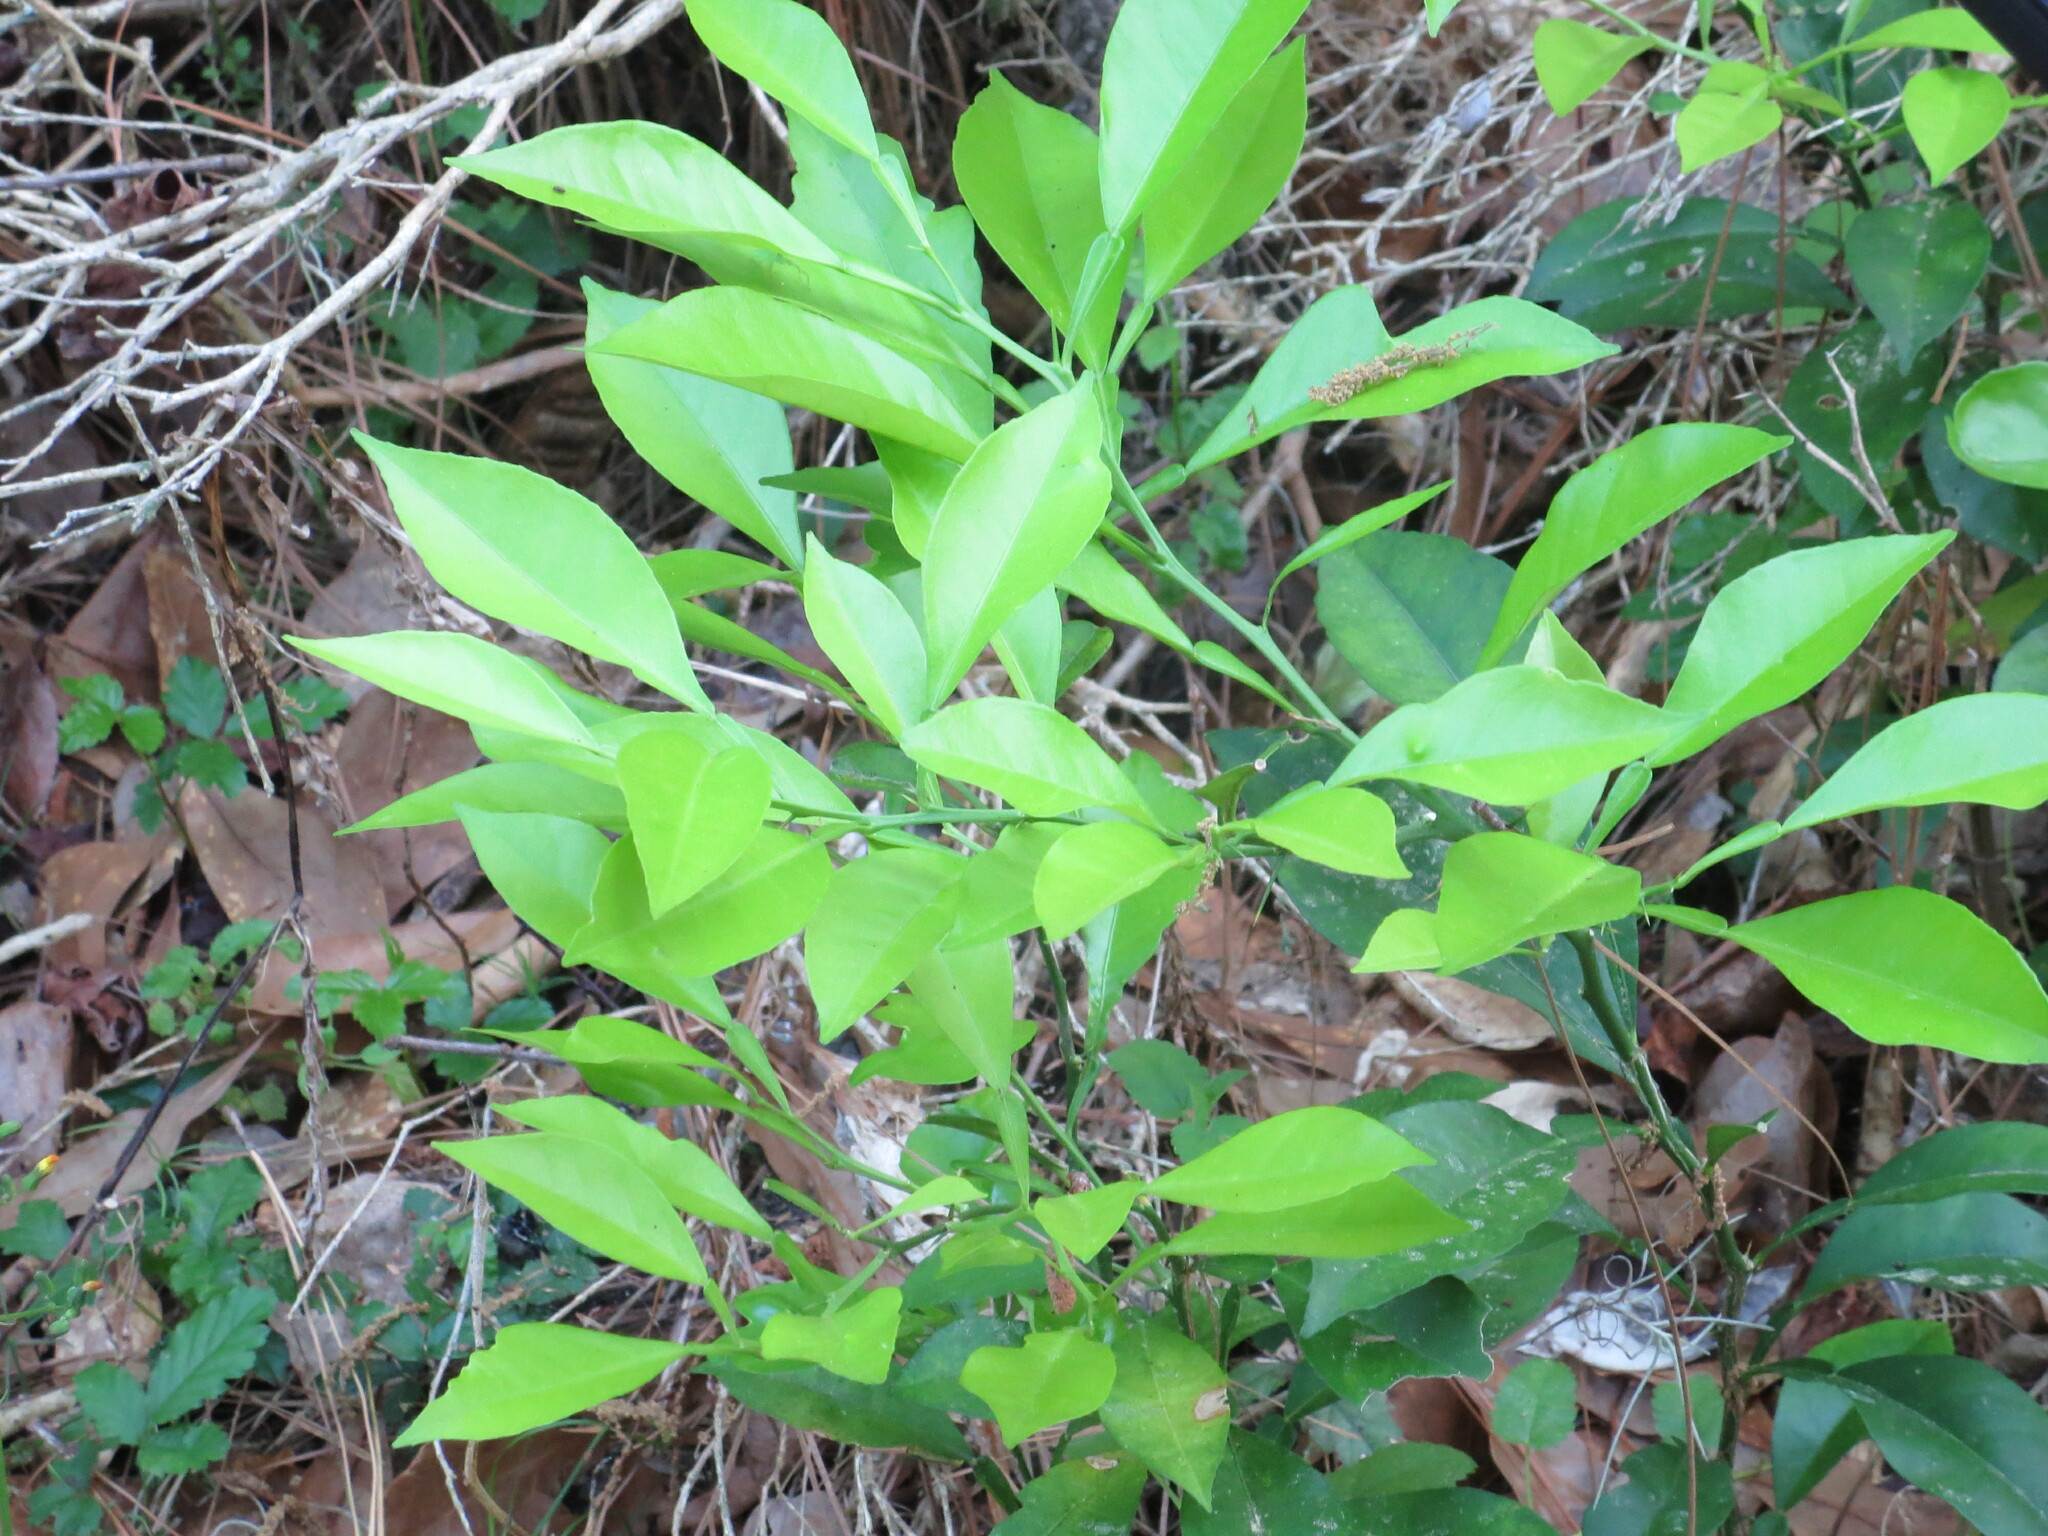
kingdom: Plantae
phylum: Tracheophyta
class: Magnoliopsida
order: Sapindales
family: Rutaceae
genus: Citrus
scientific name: Citrus aurantium
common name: Sour orange
